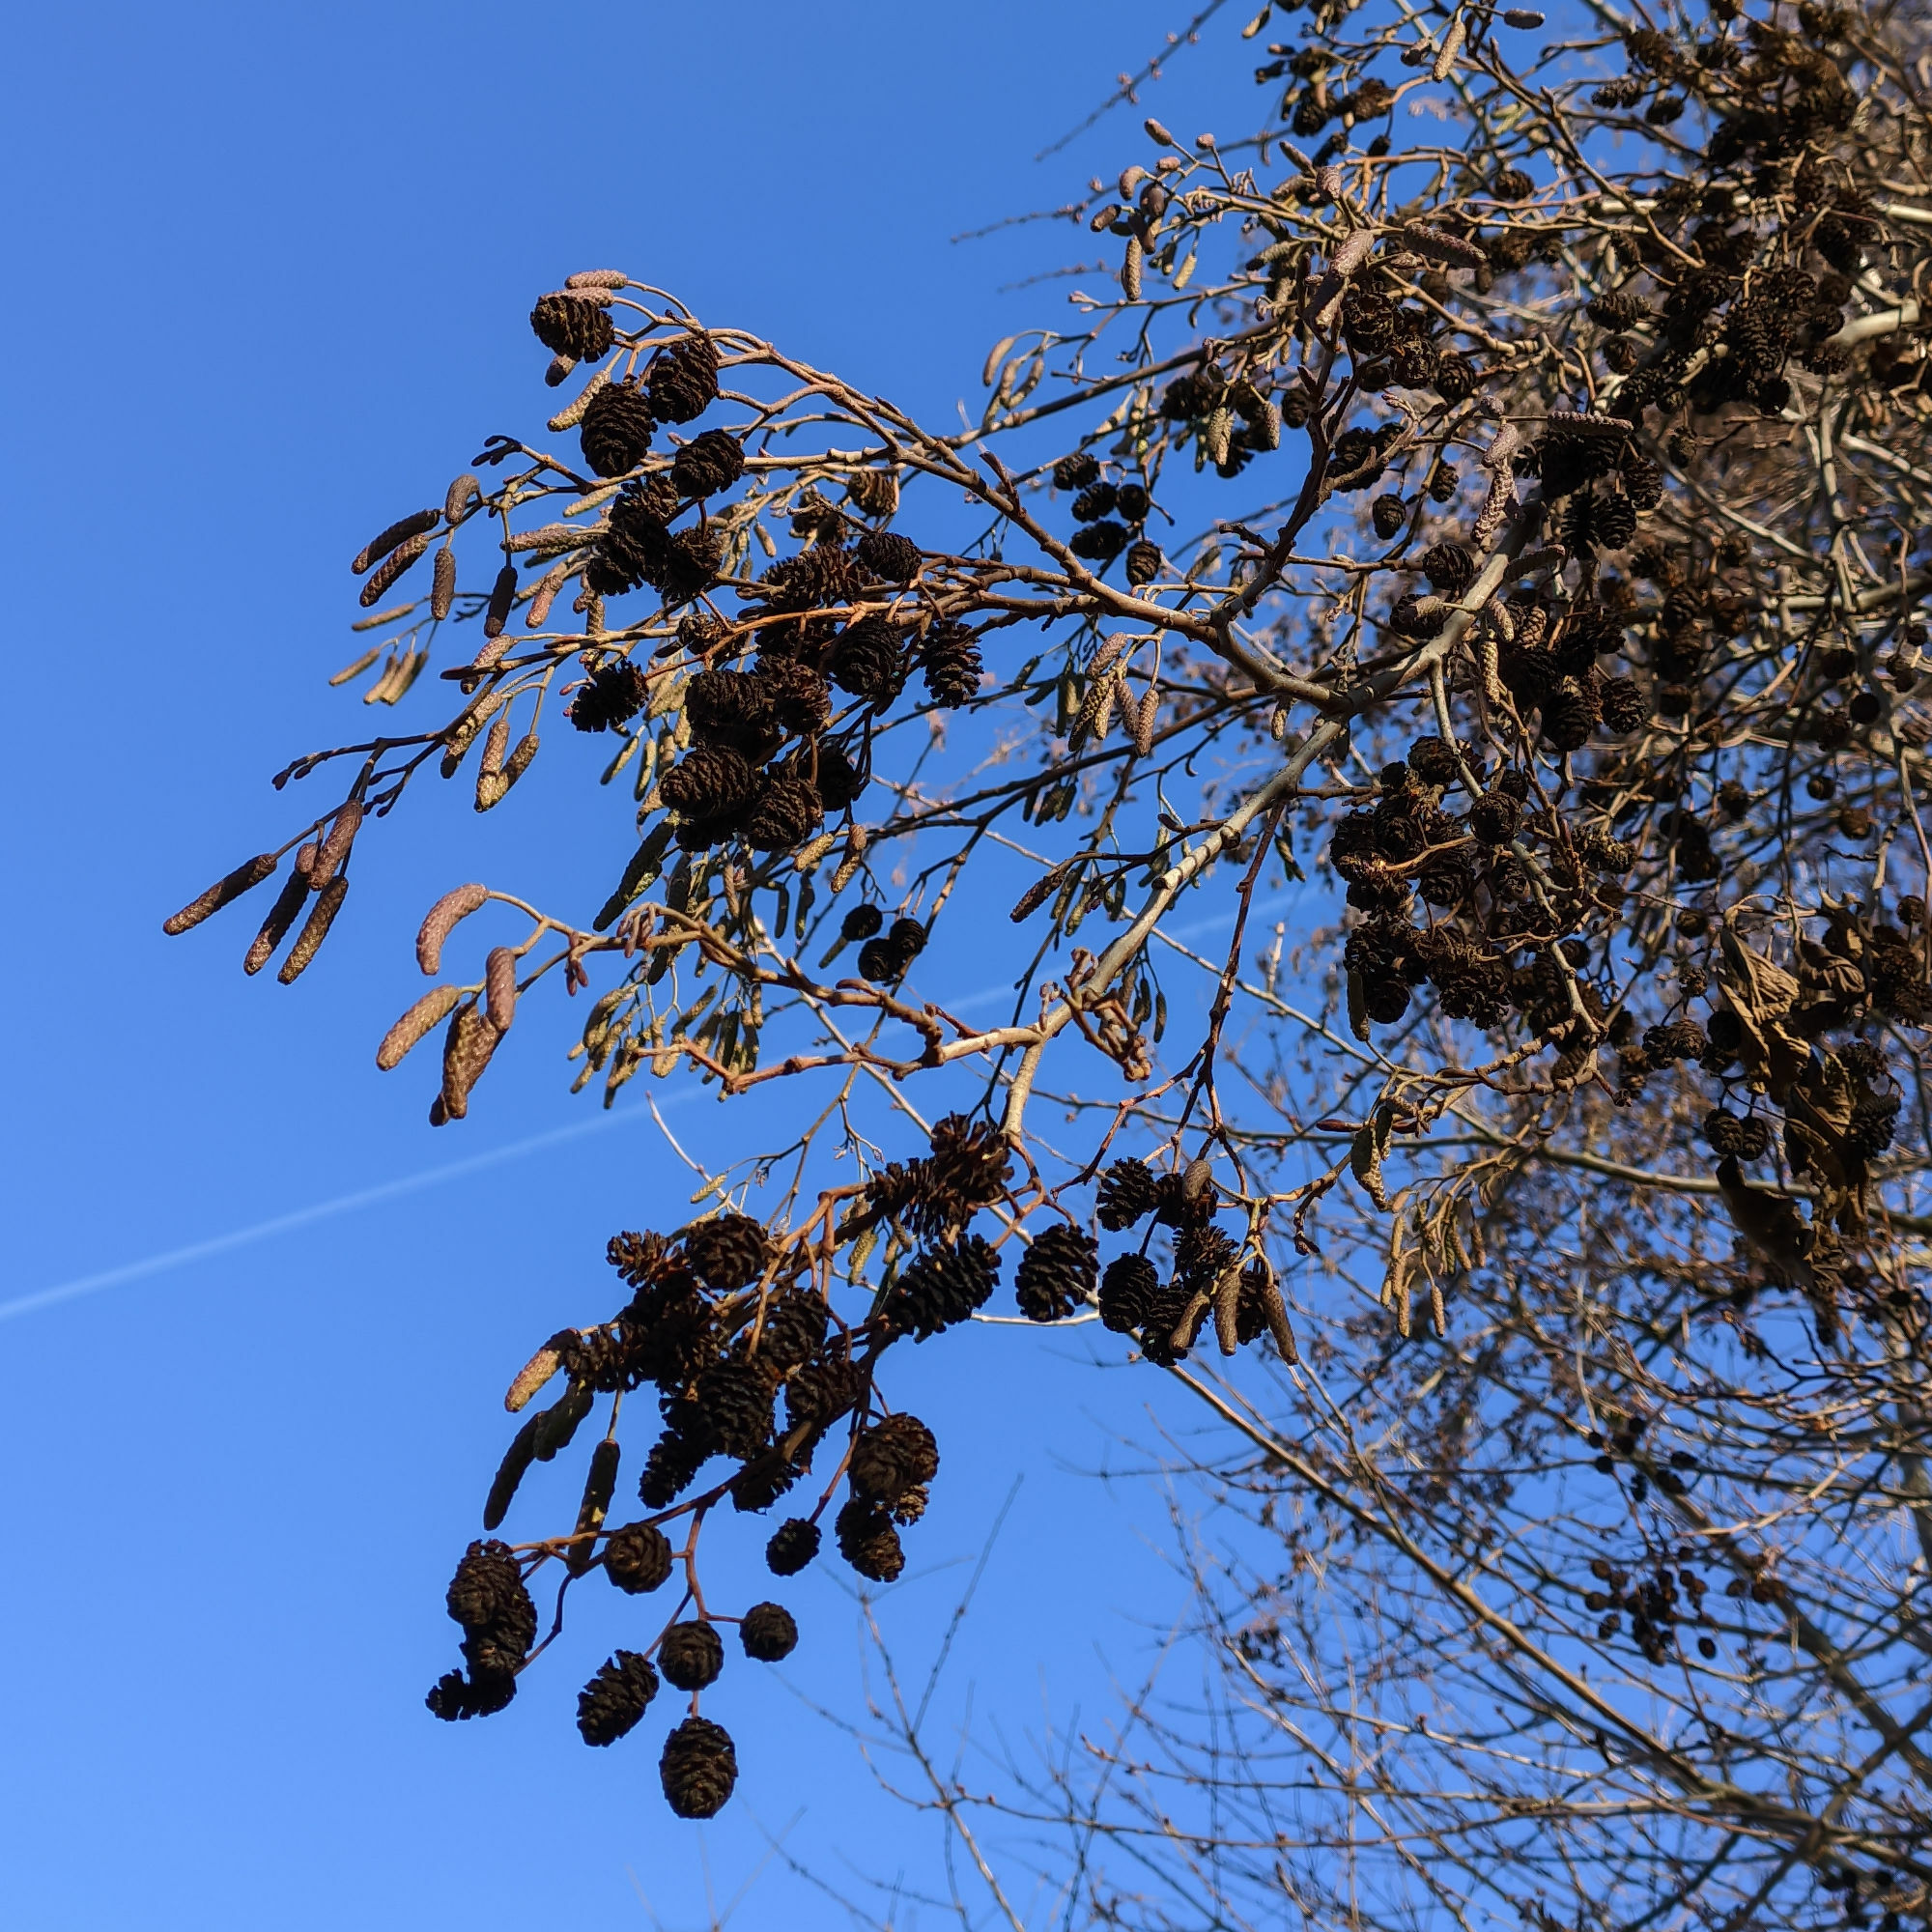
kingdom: Plantae
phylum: Tracheophyta
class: Magnoliopsida
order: Fagales
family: Betulaceae
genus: Alnus
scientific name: Alnus glutinosa
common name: Black alder
